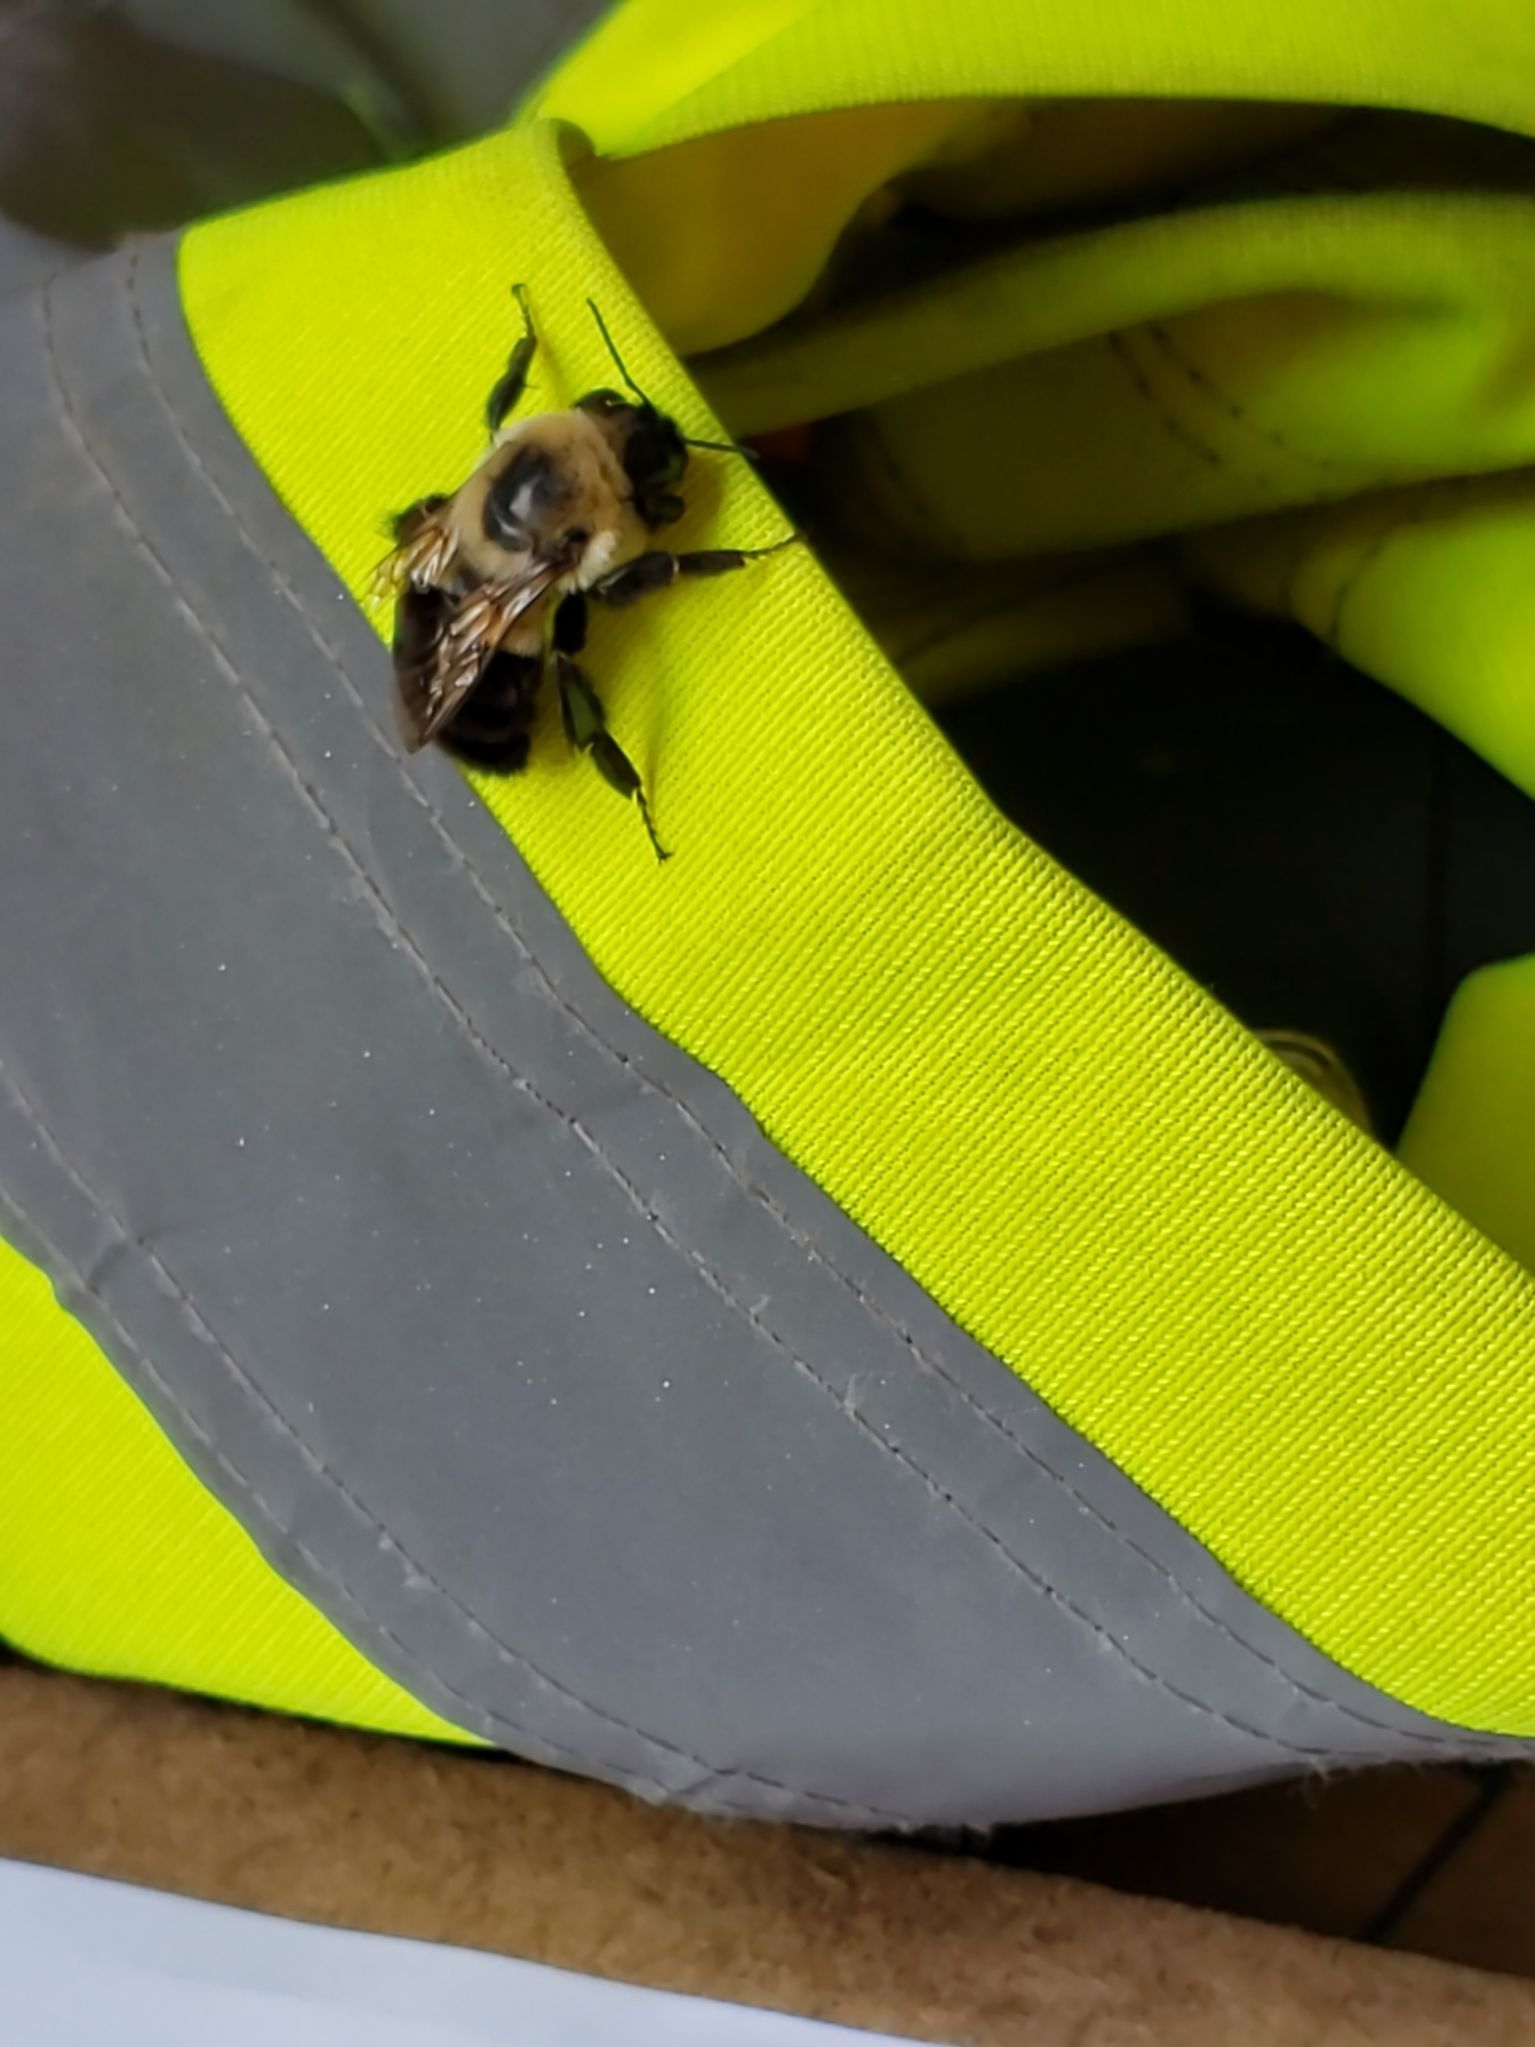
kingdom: Animalia
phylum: Arthropoda
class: Insecta
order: Hymenoptera
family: Apidae
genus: Bombus
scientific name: Bombus impatiens
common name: Common eastern bumble bee
